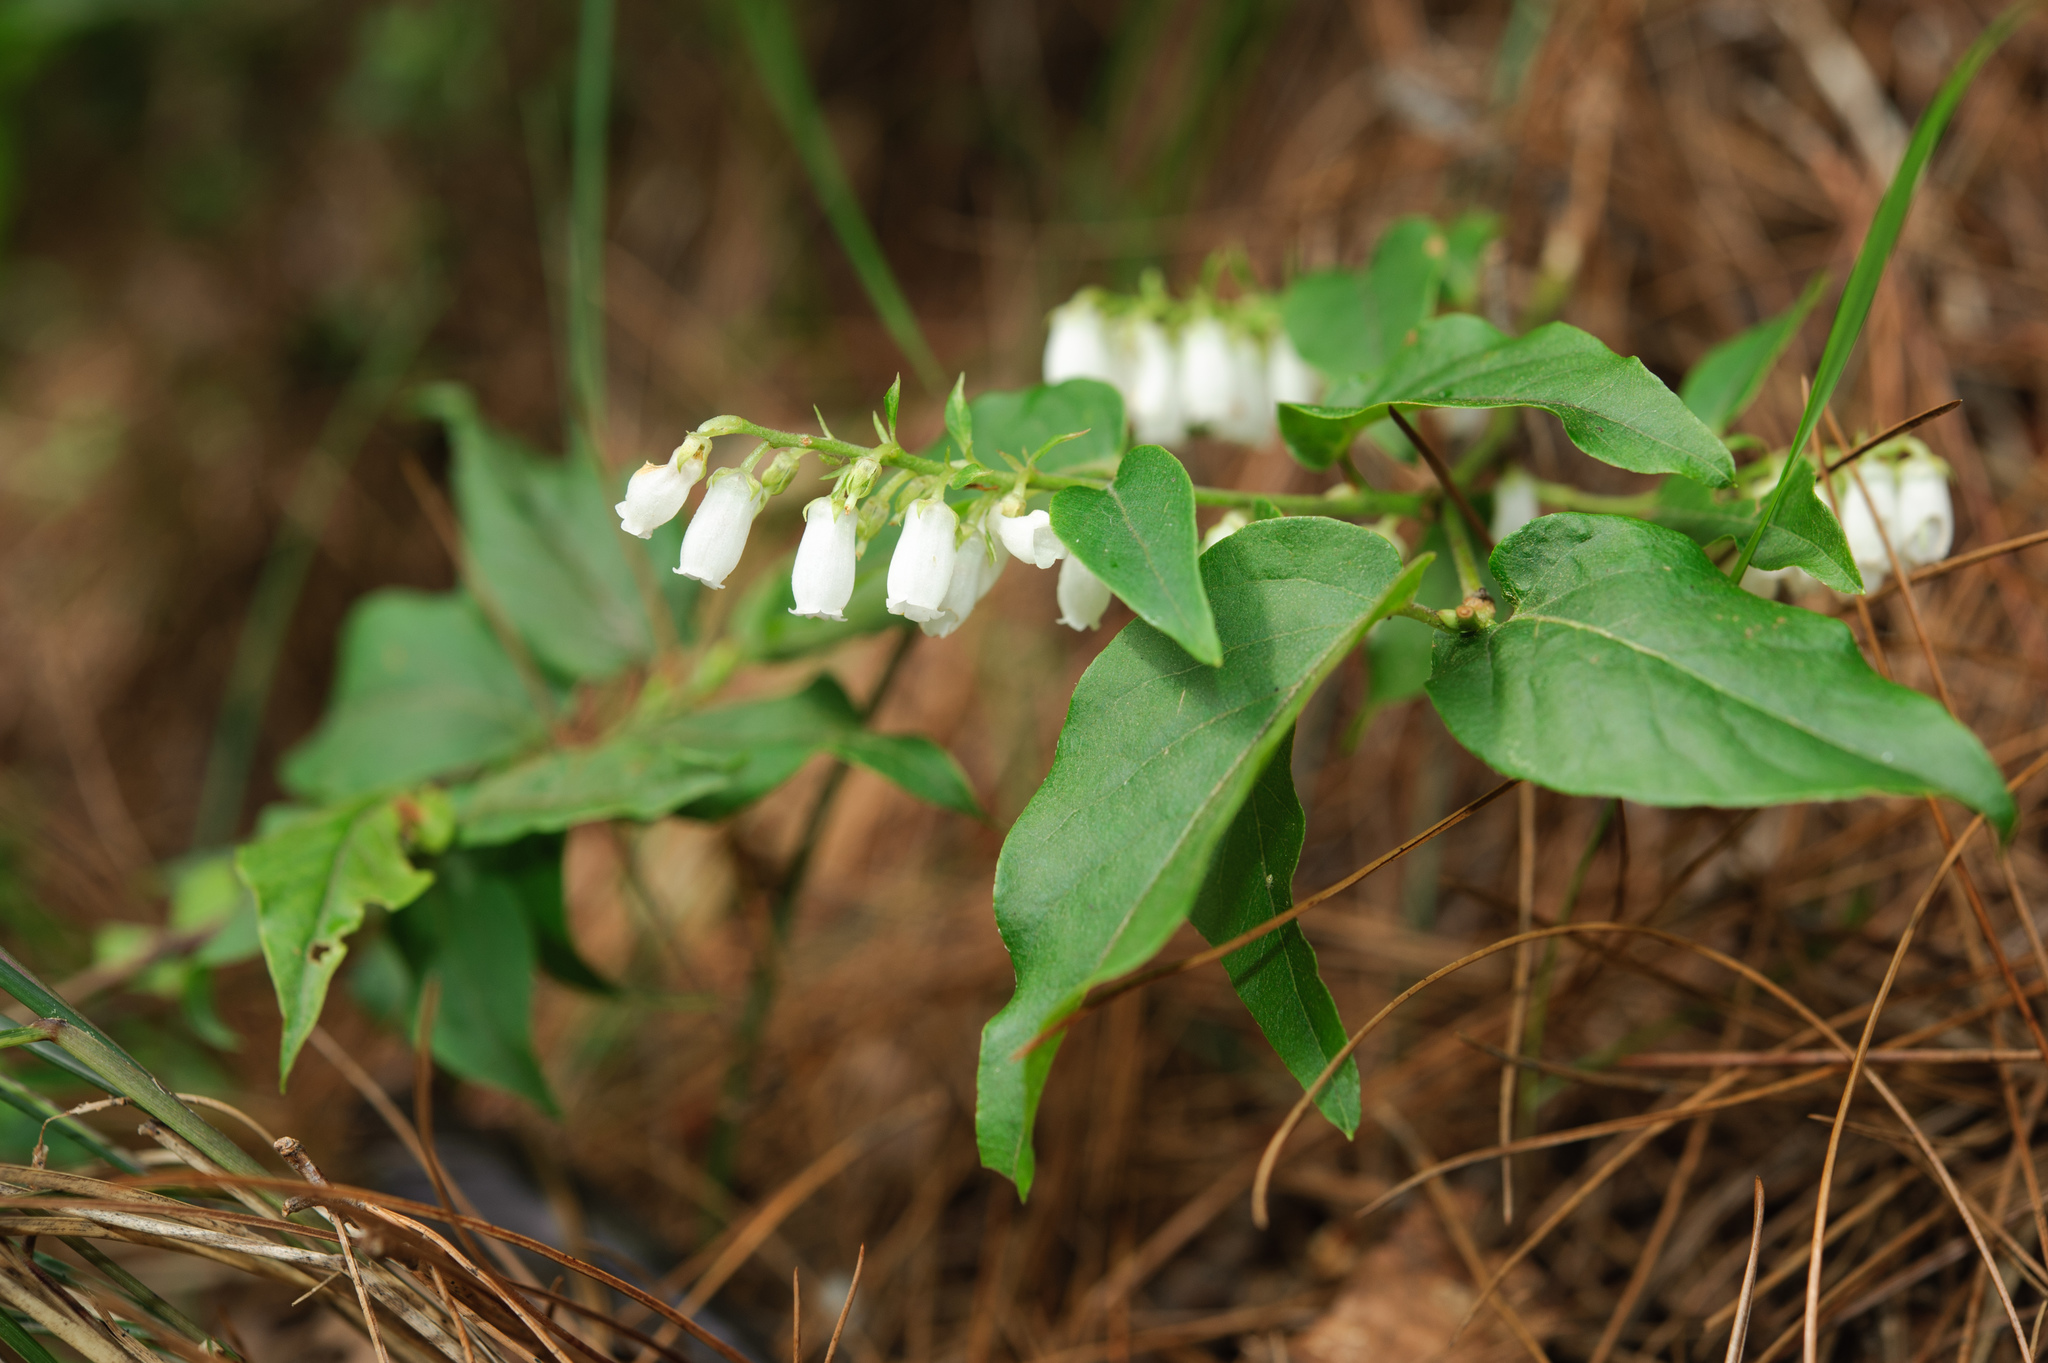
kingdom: Plantae
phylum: Tracheophyta
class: Magnoliopsida
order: Ericales
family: Ericaceae
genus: Lyonia
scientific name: Lyonia ovalifolia
